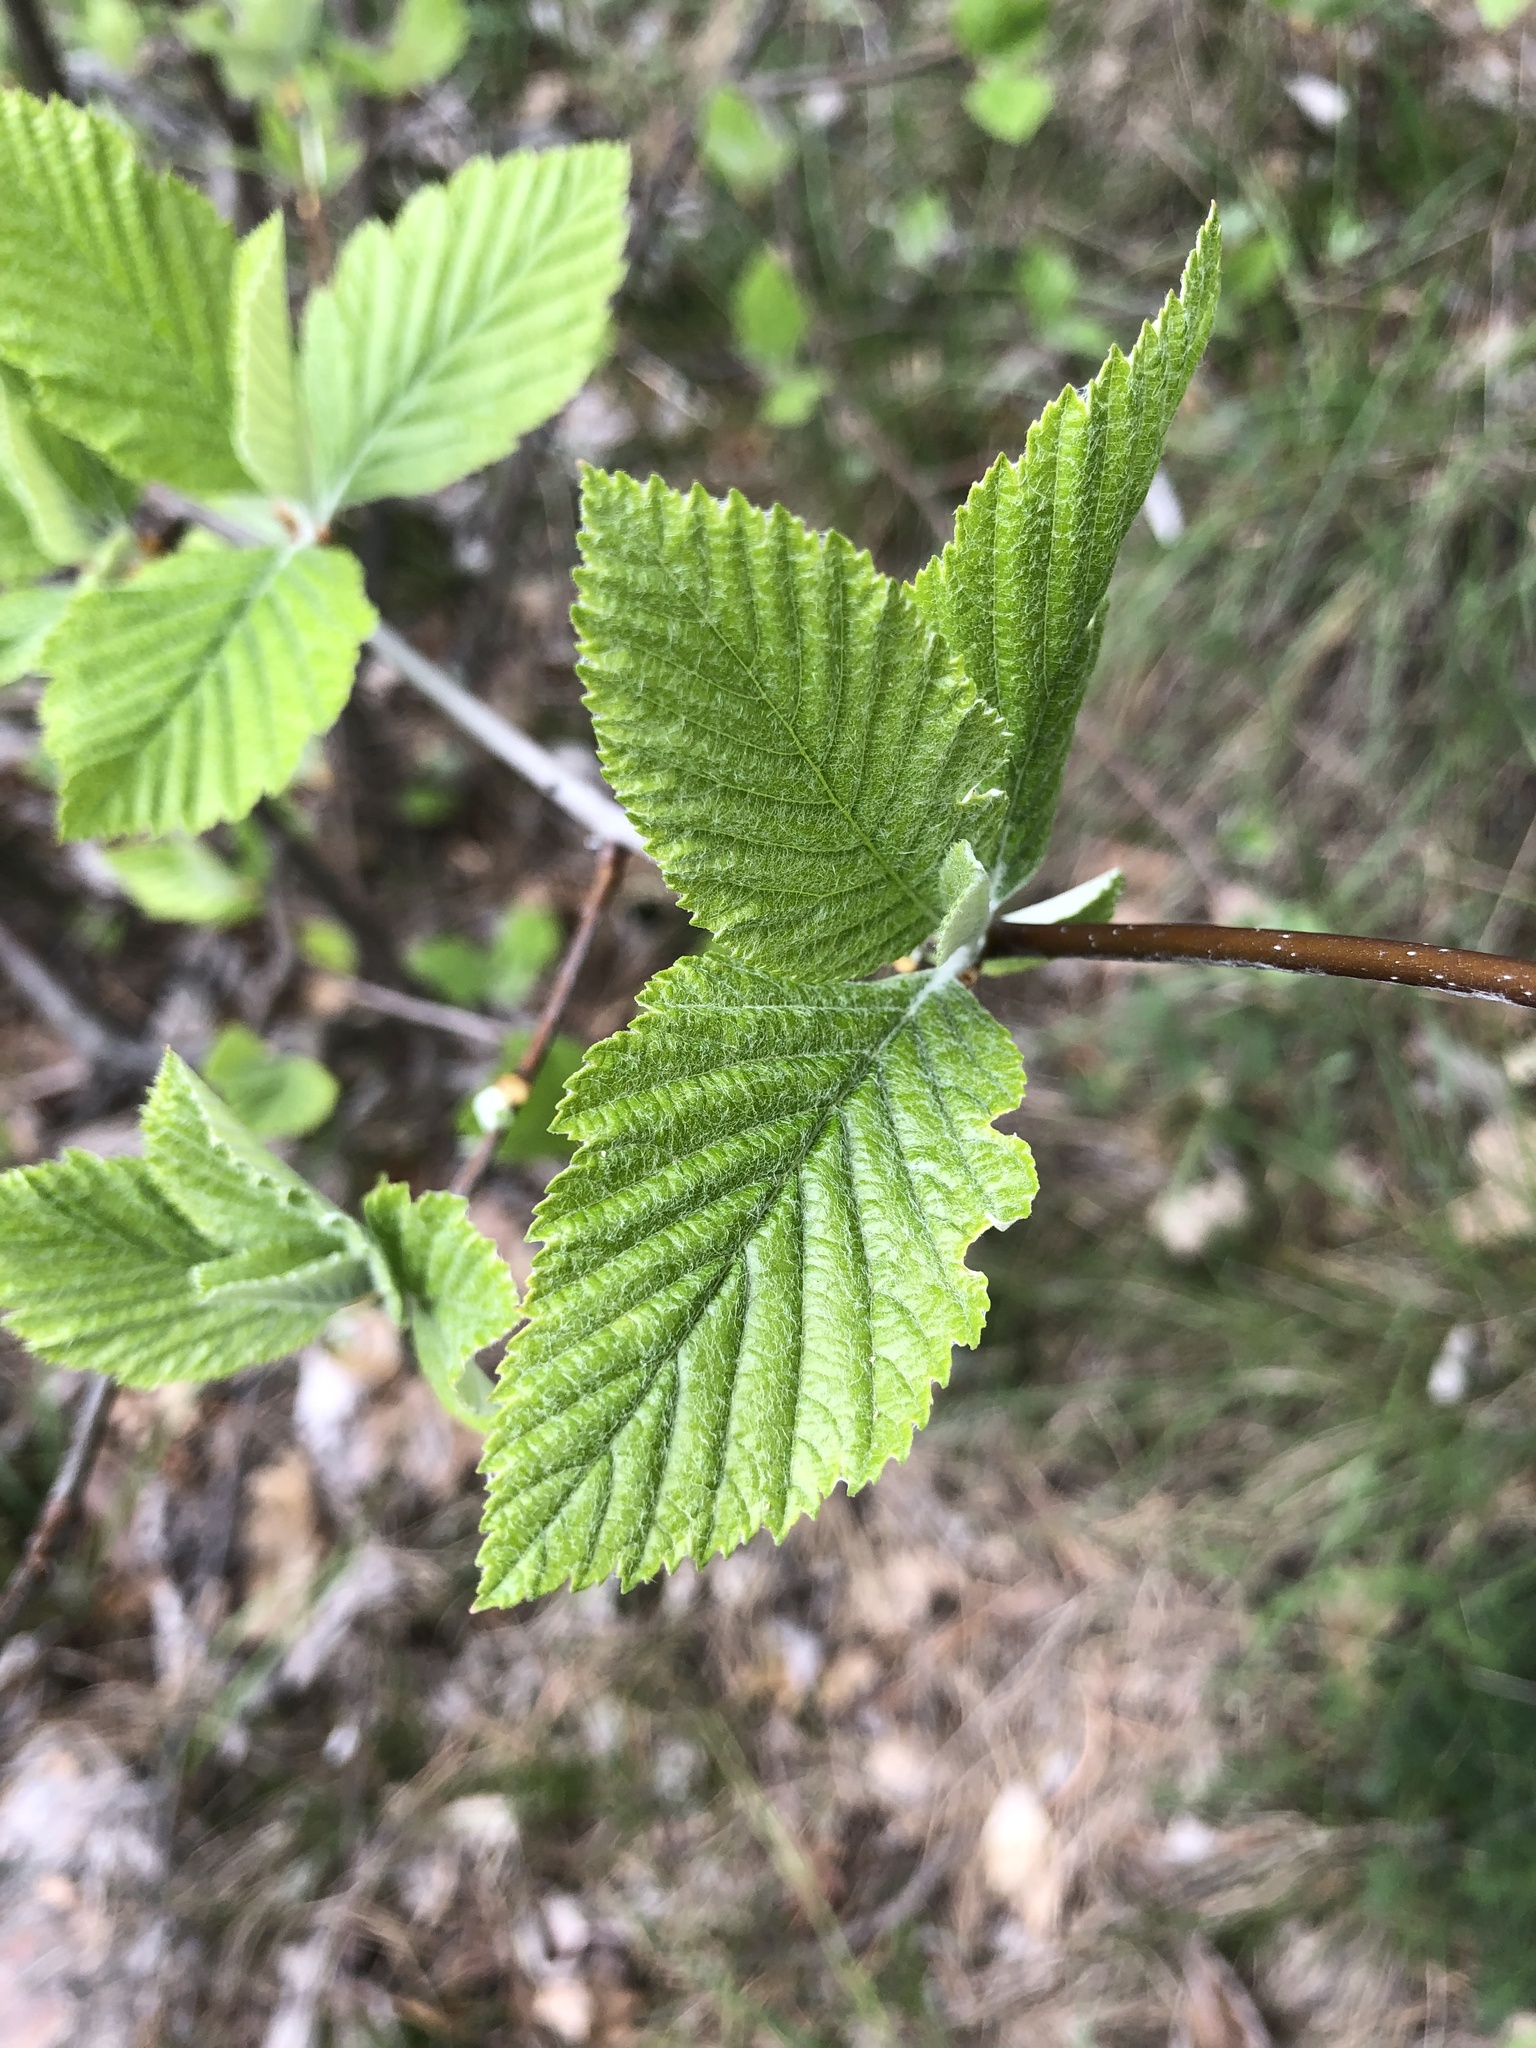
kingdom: Plantae
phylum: Tracheophyta
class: Magnoliopsida
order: Rosales
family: Rosaceae
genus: Aria
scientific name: Aria edulis
